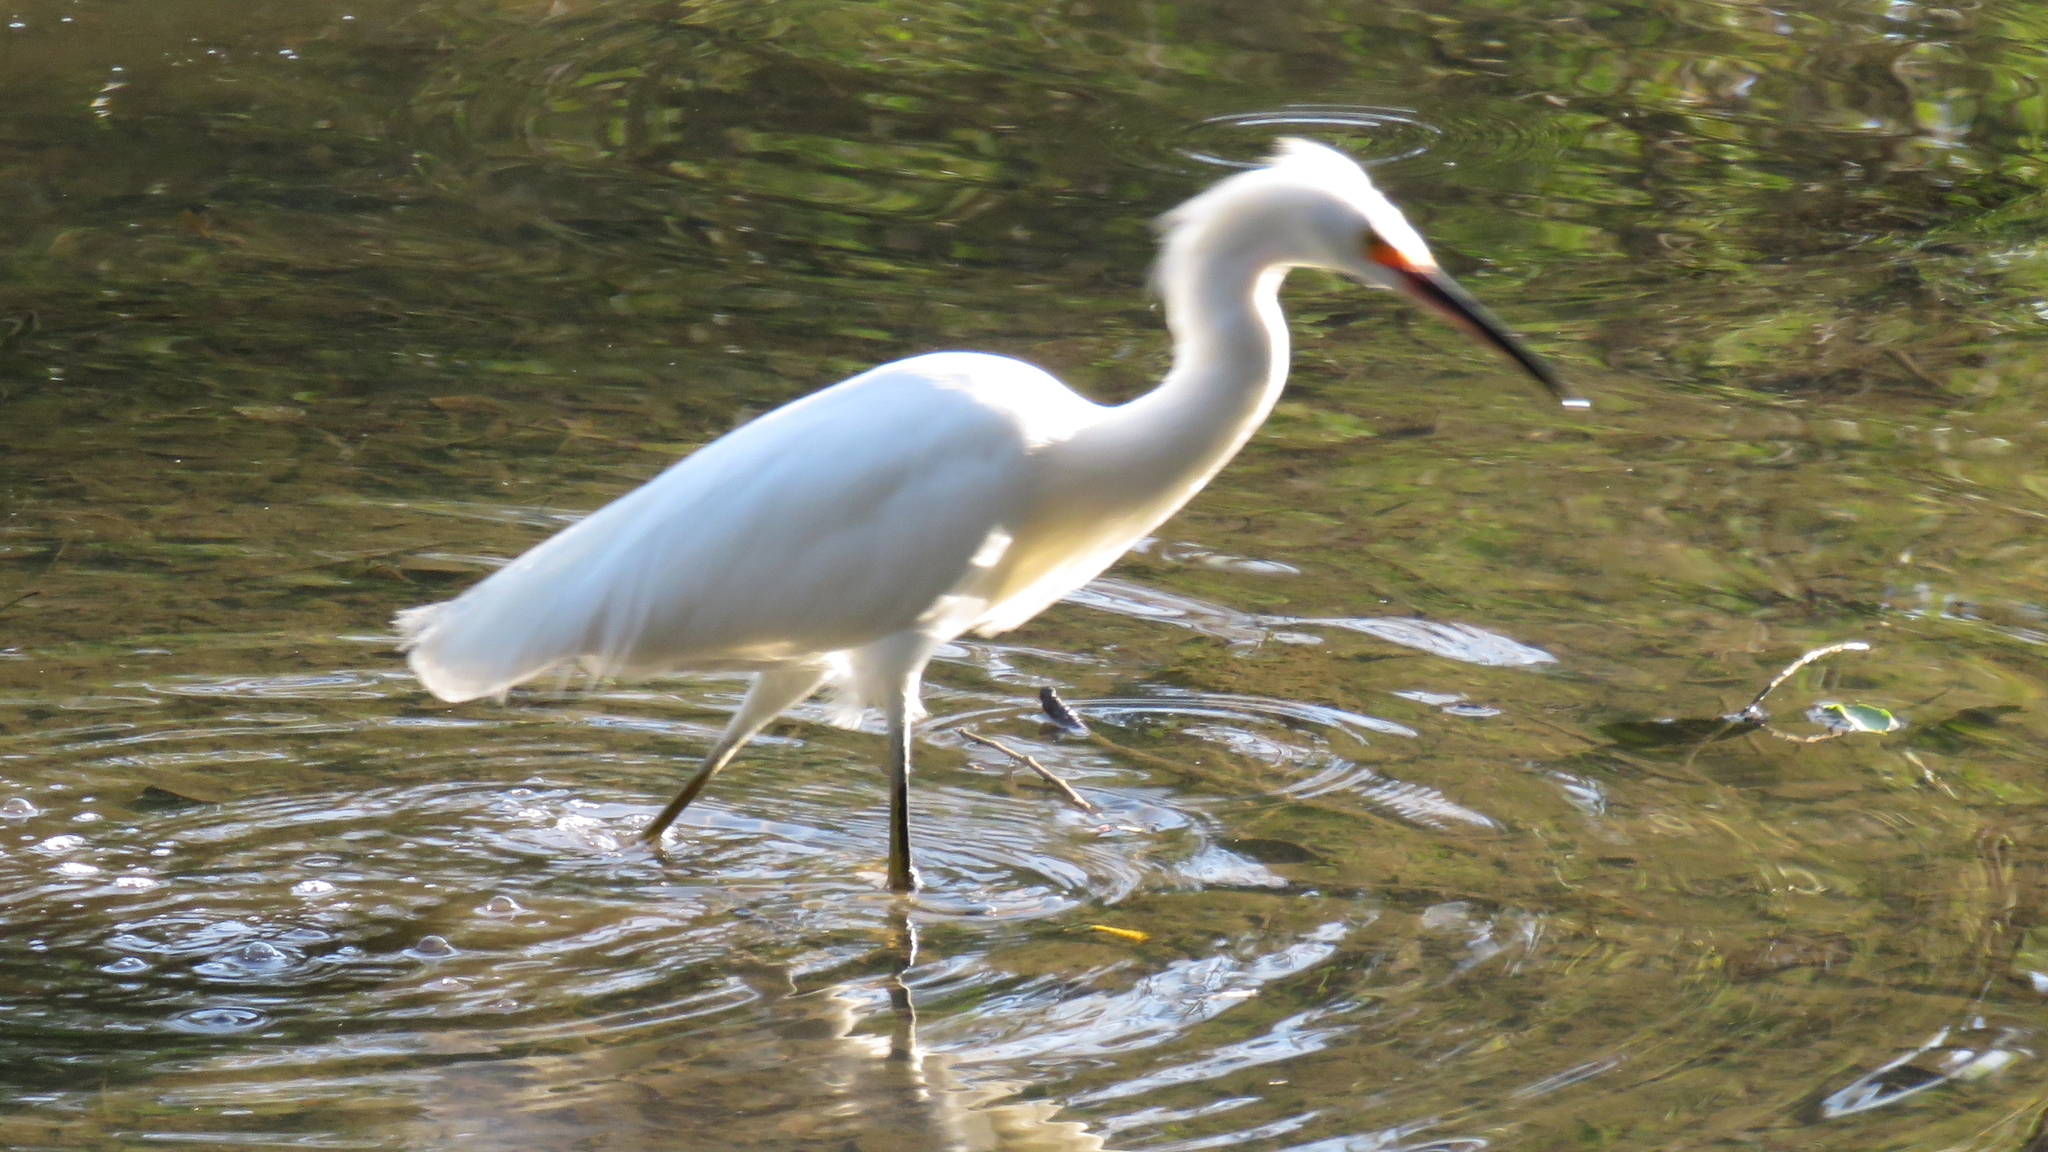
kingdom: Animalia
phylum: Chordata
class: Aves
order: Pelecaniformes
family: Ardeidae
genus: Egretta
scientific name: Egretta thula
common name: Snowy egret
